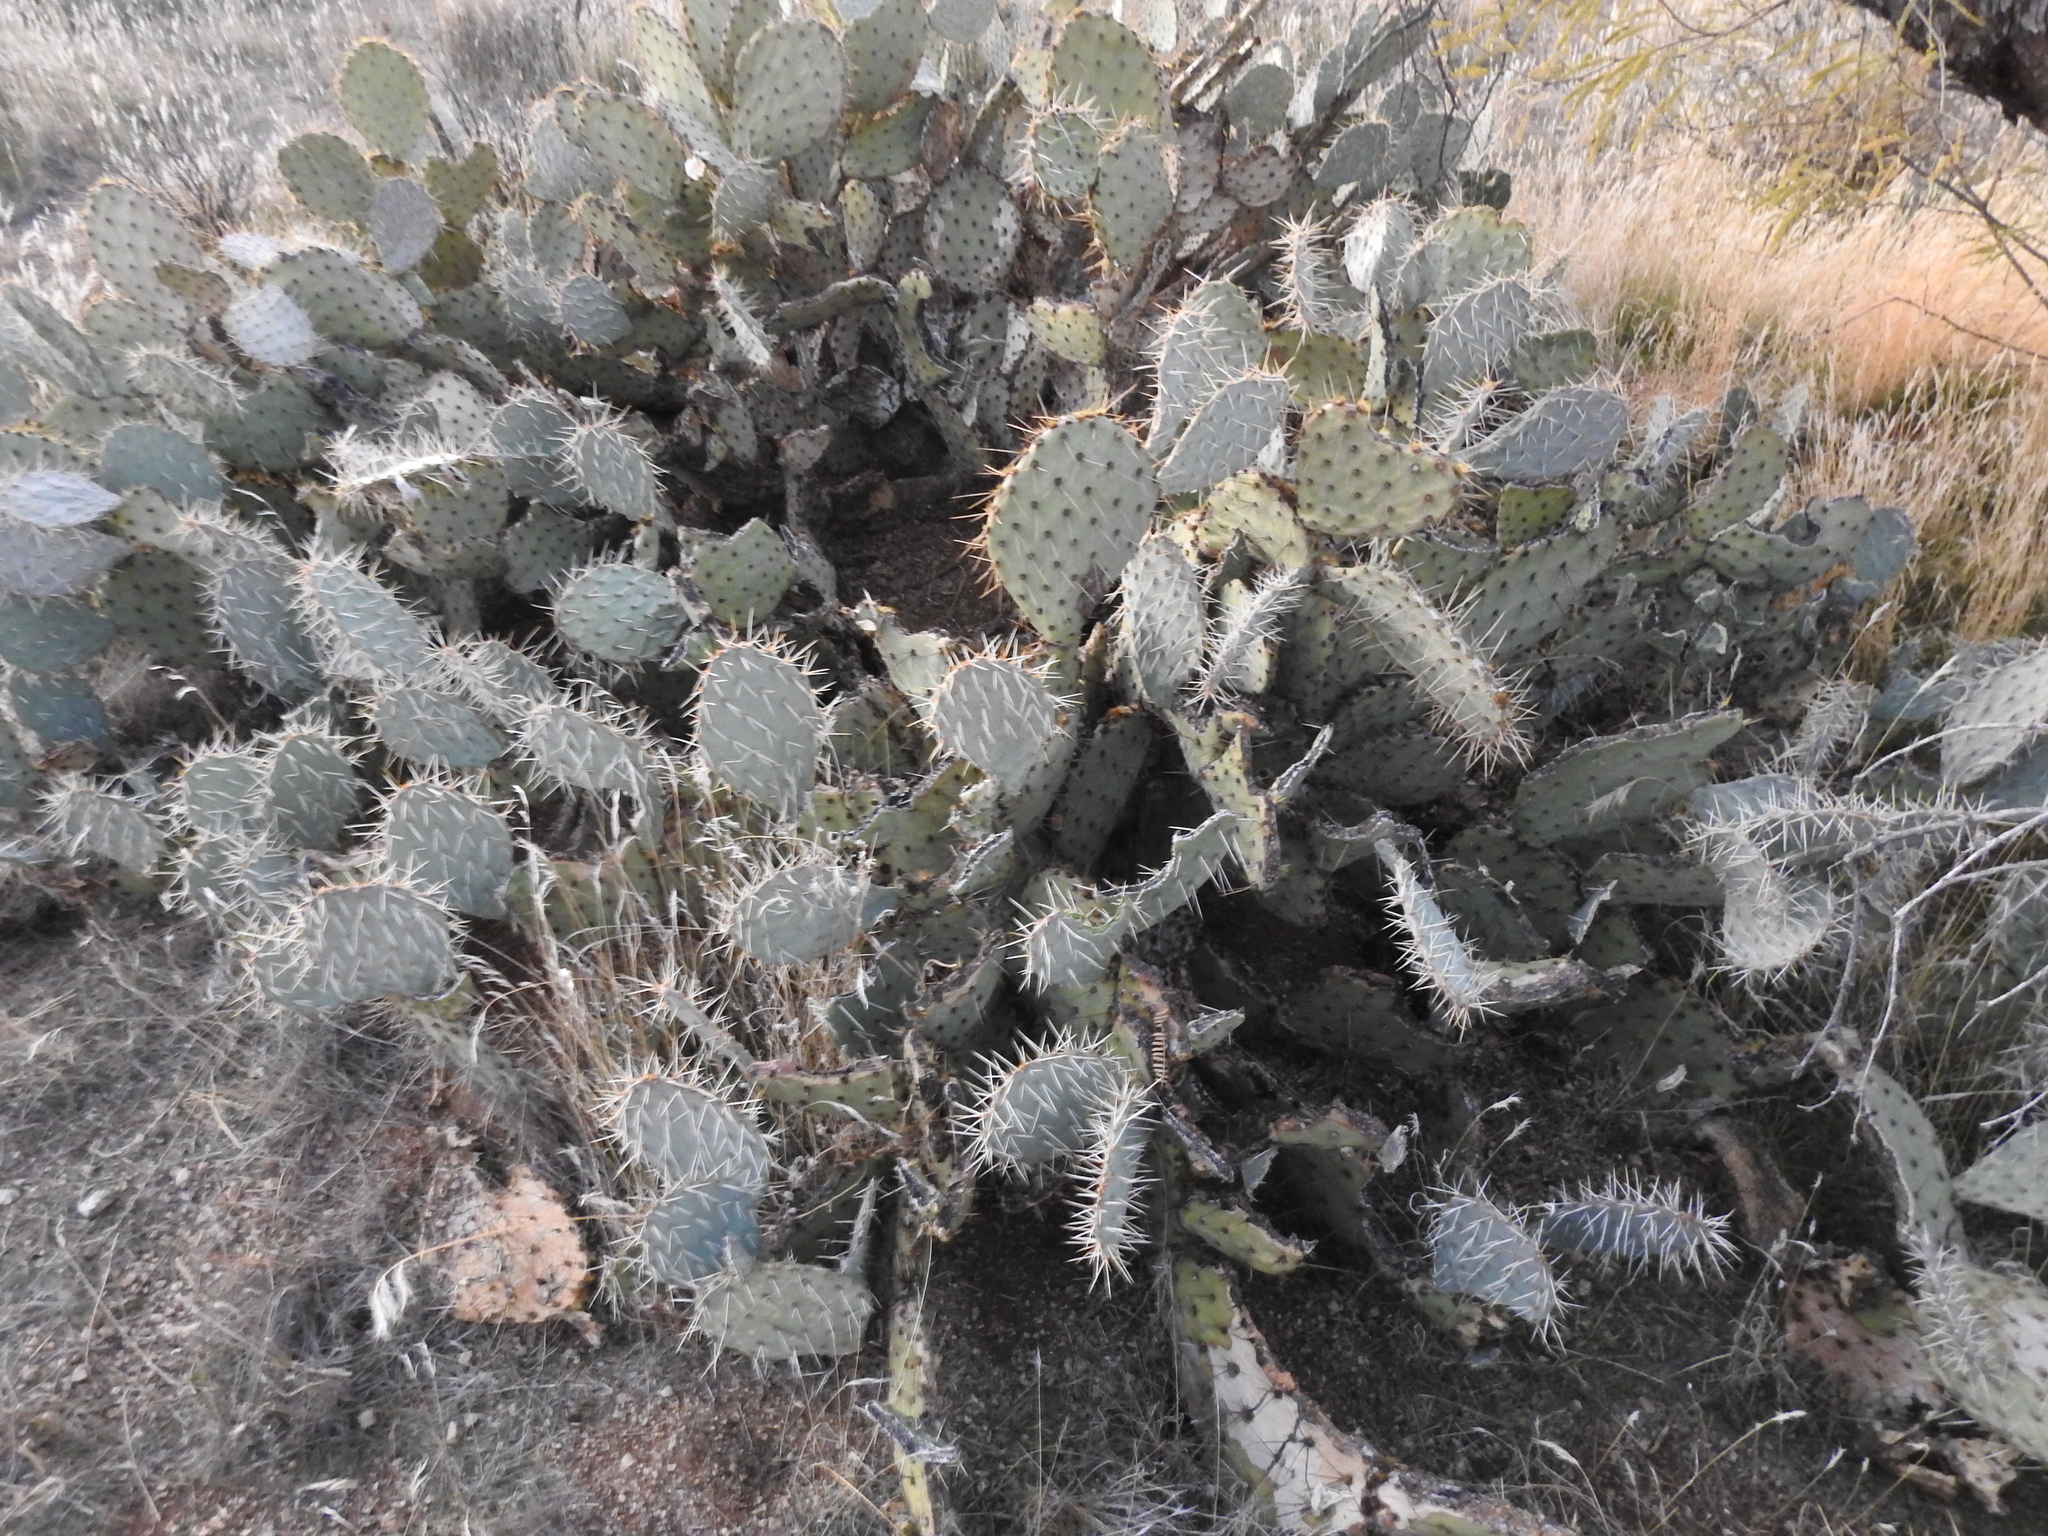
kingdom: Plantae
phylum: Tracheophyta
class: Magnoliopsida
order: Caryophyllales
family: Cactaceae
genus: Opuntia
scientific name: Opuntia engelmannii
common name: Cactus-apple
